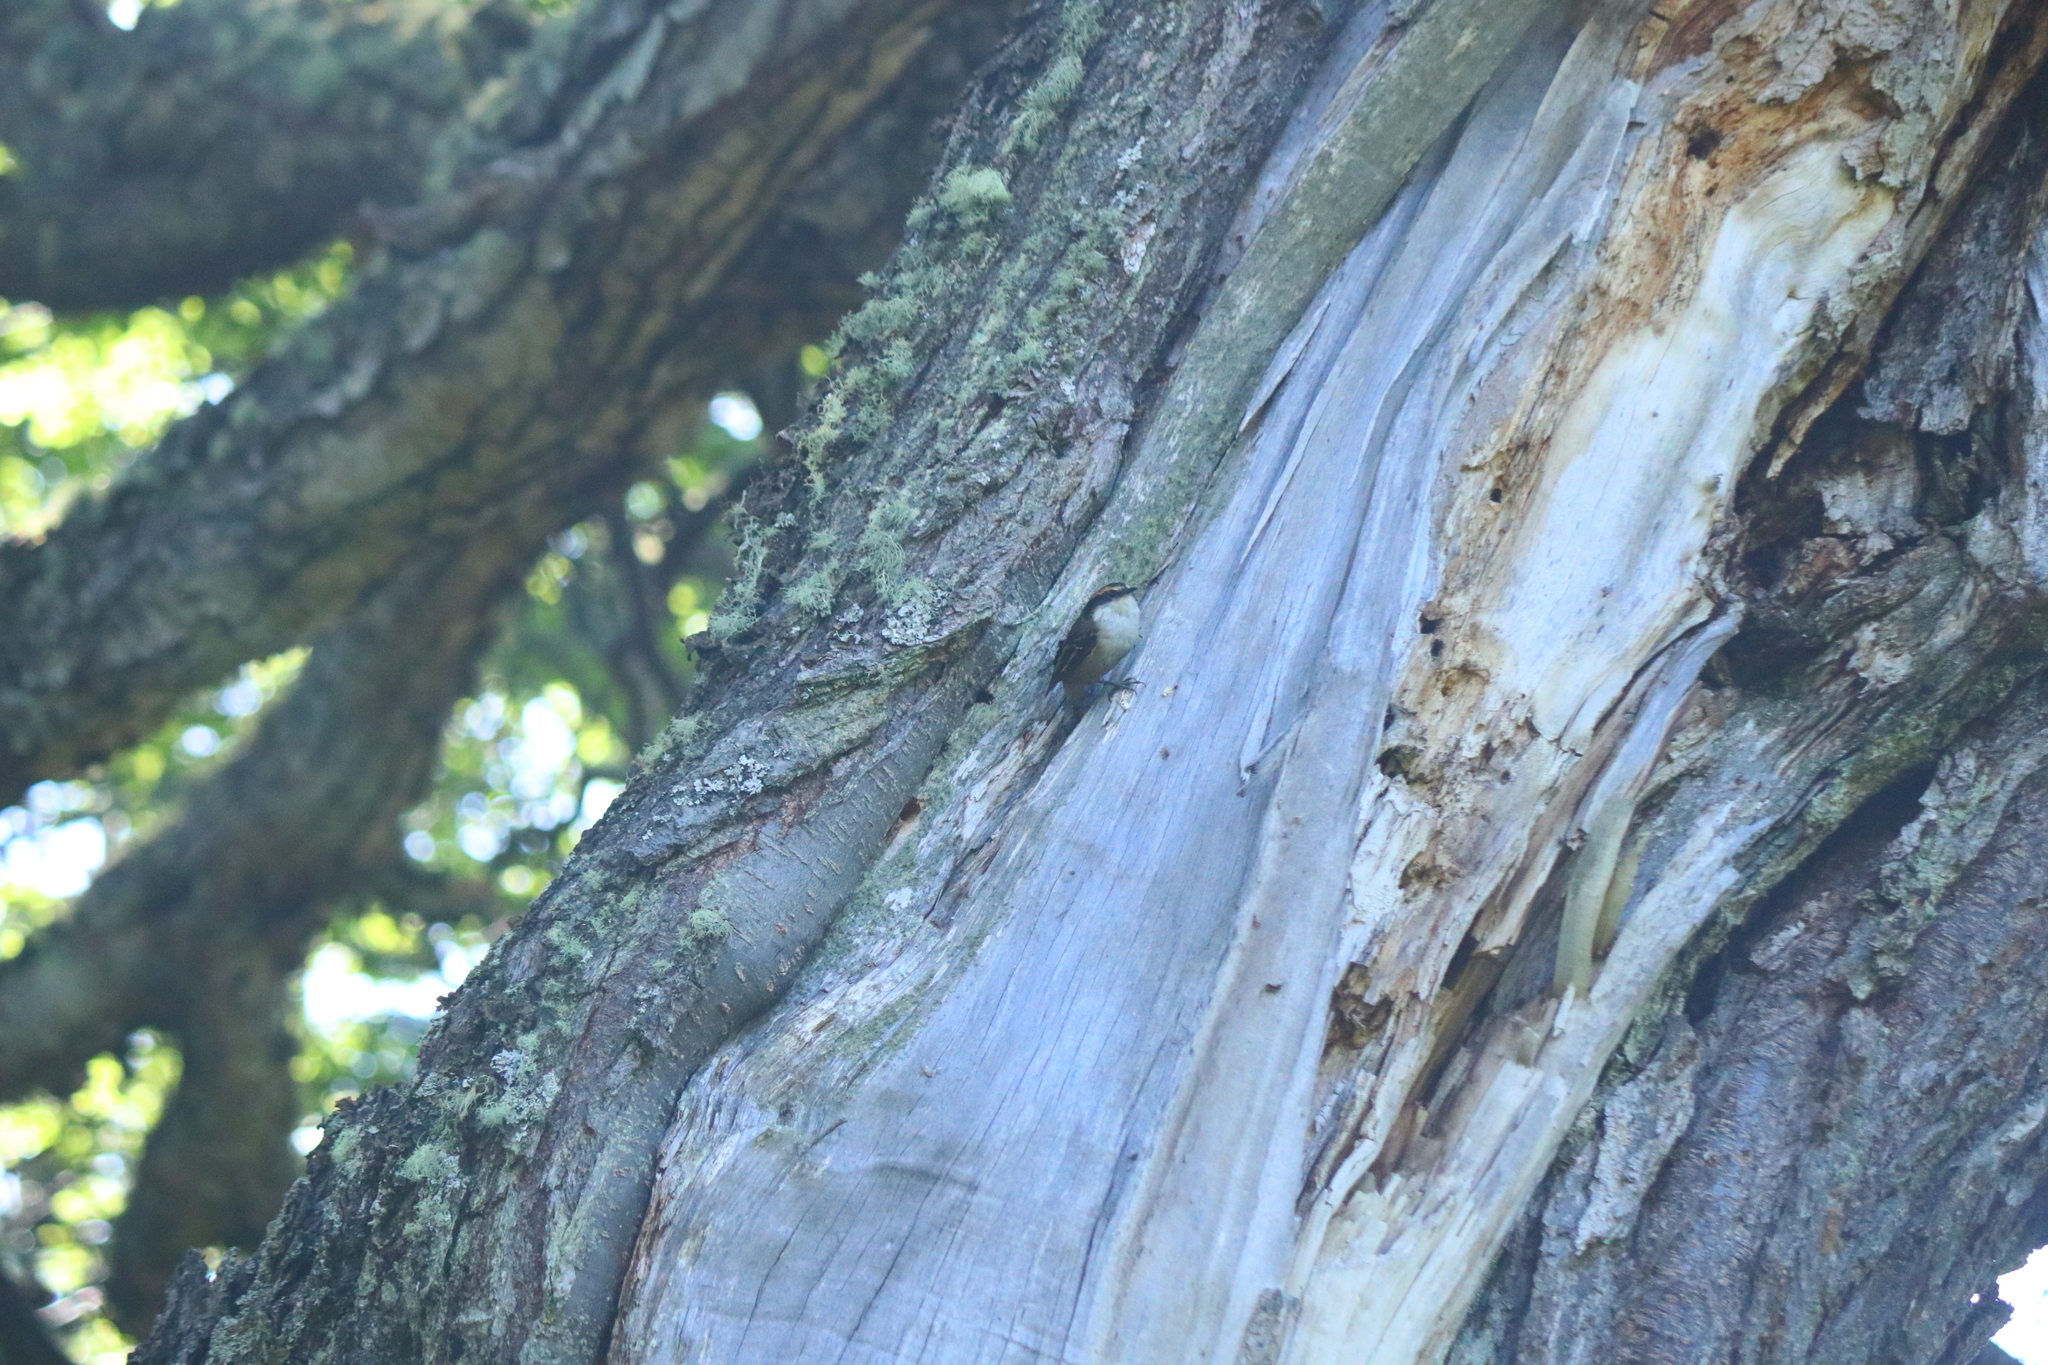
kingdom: Animalia
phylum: Chordata
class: Aves
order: Passeriformes
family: Furnariidae
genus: Aphrastura
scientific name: Aphrastura spinicauda
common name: Thorn-tailed rayadito
